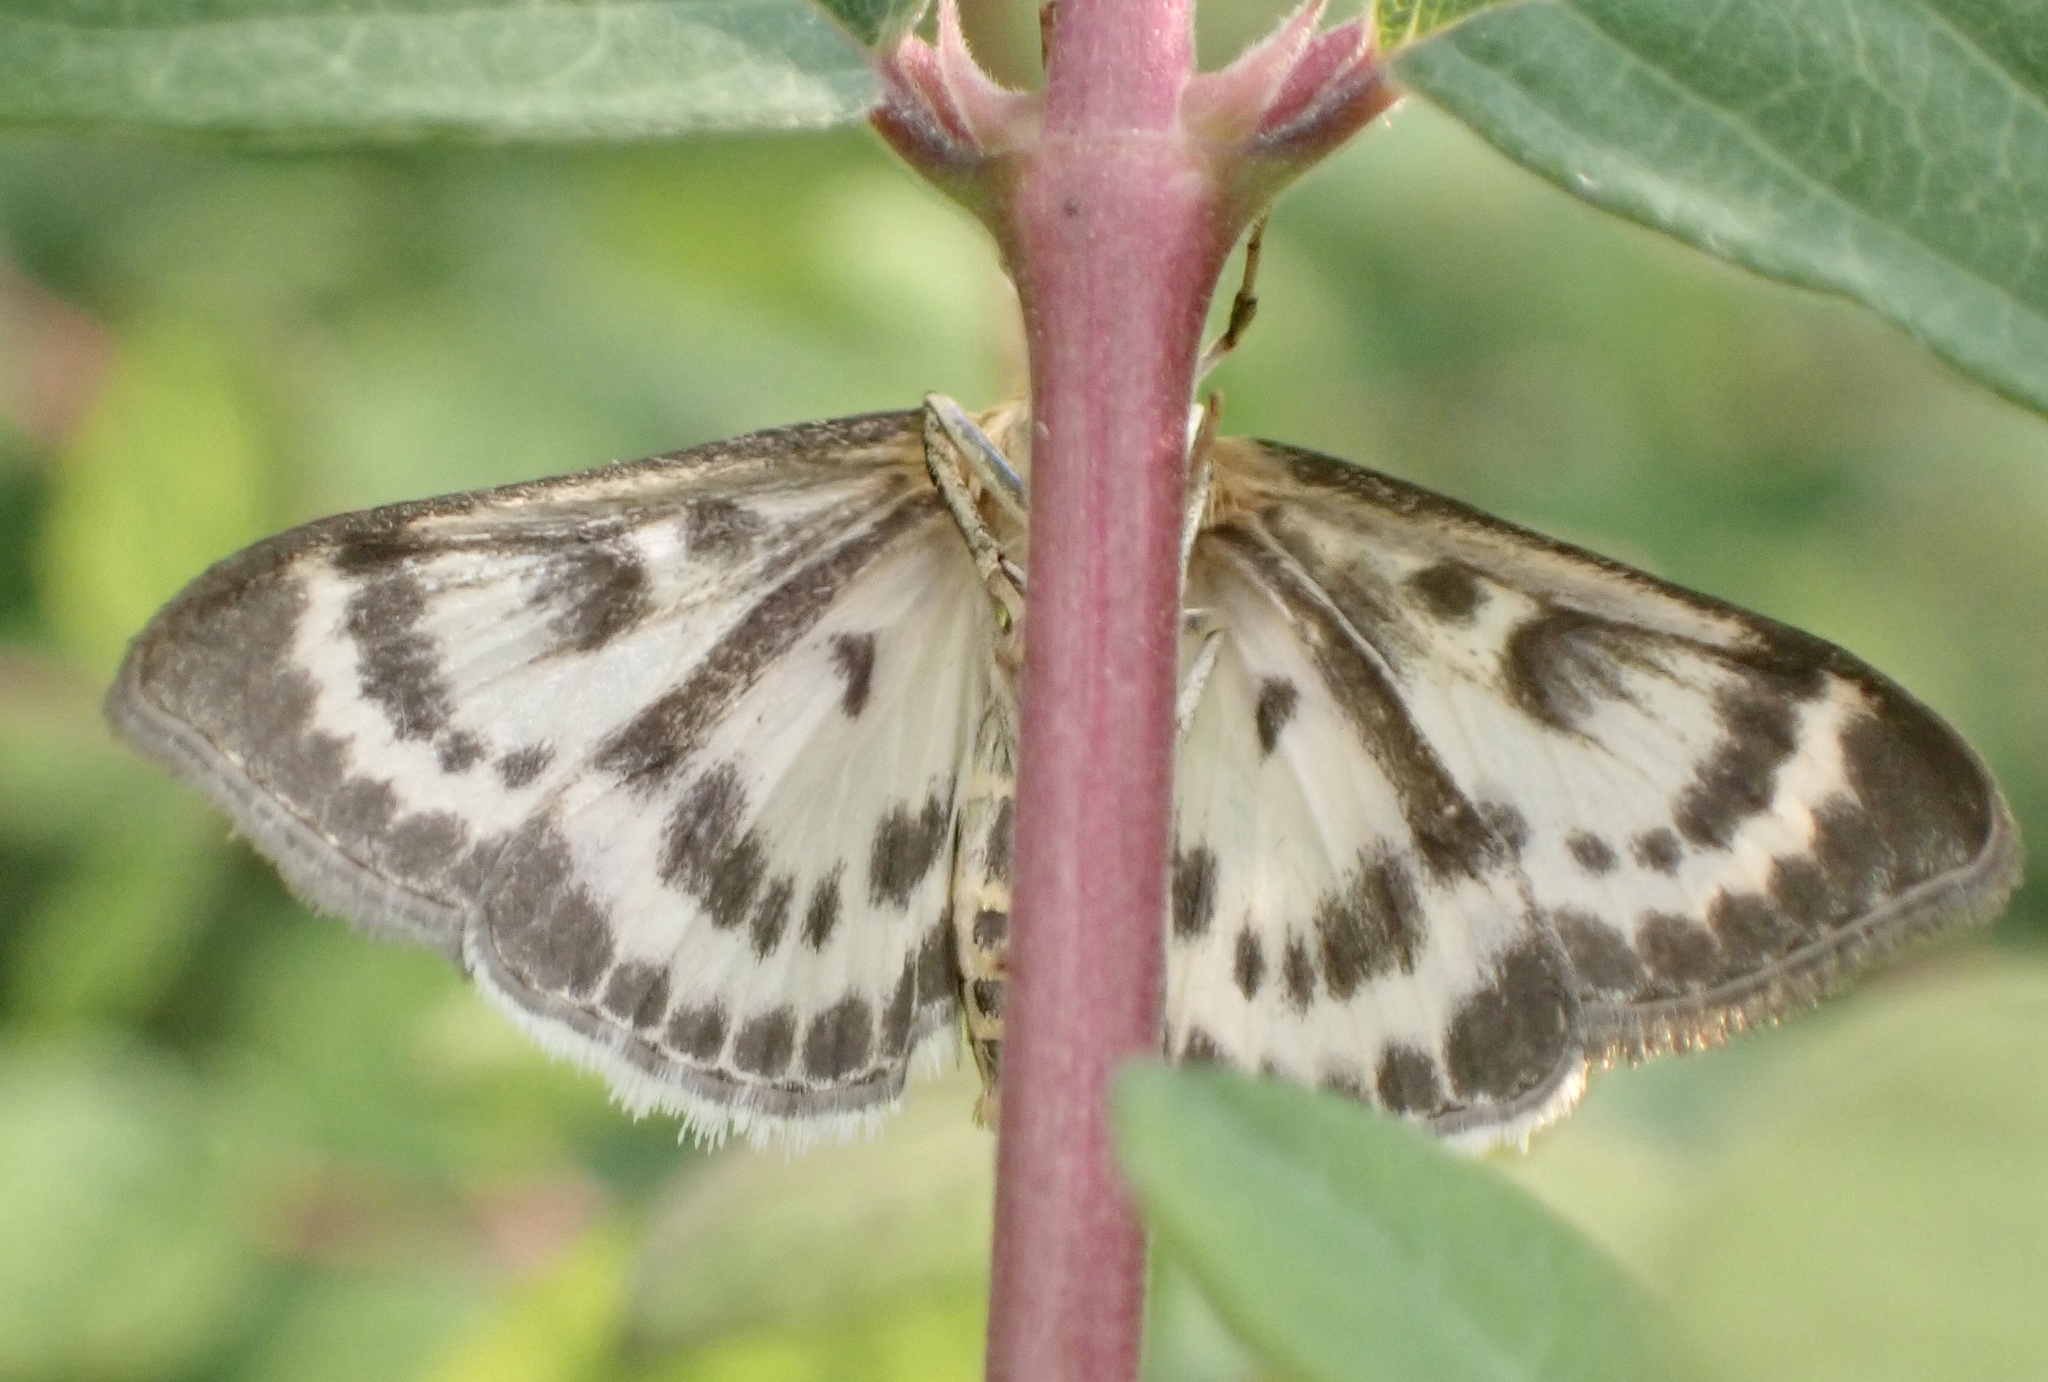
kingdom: Animalia
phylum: Arthropoda
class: Insecta
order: Lepidoptera
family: Crambidae
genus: Anania
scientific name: Anania hortulata
